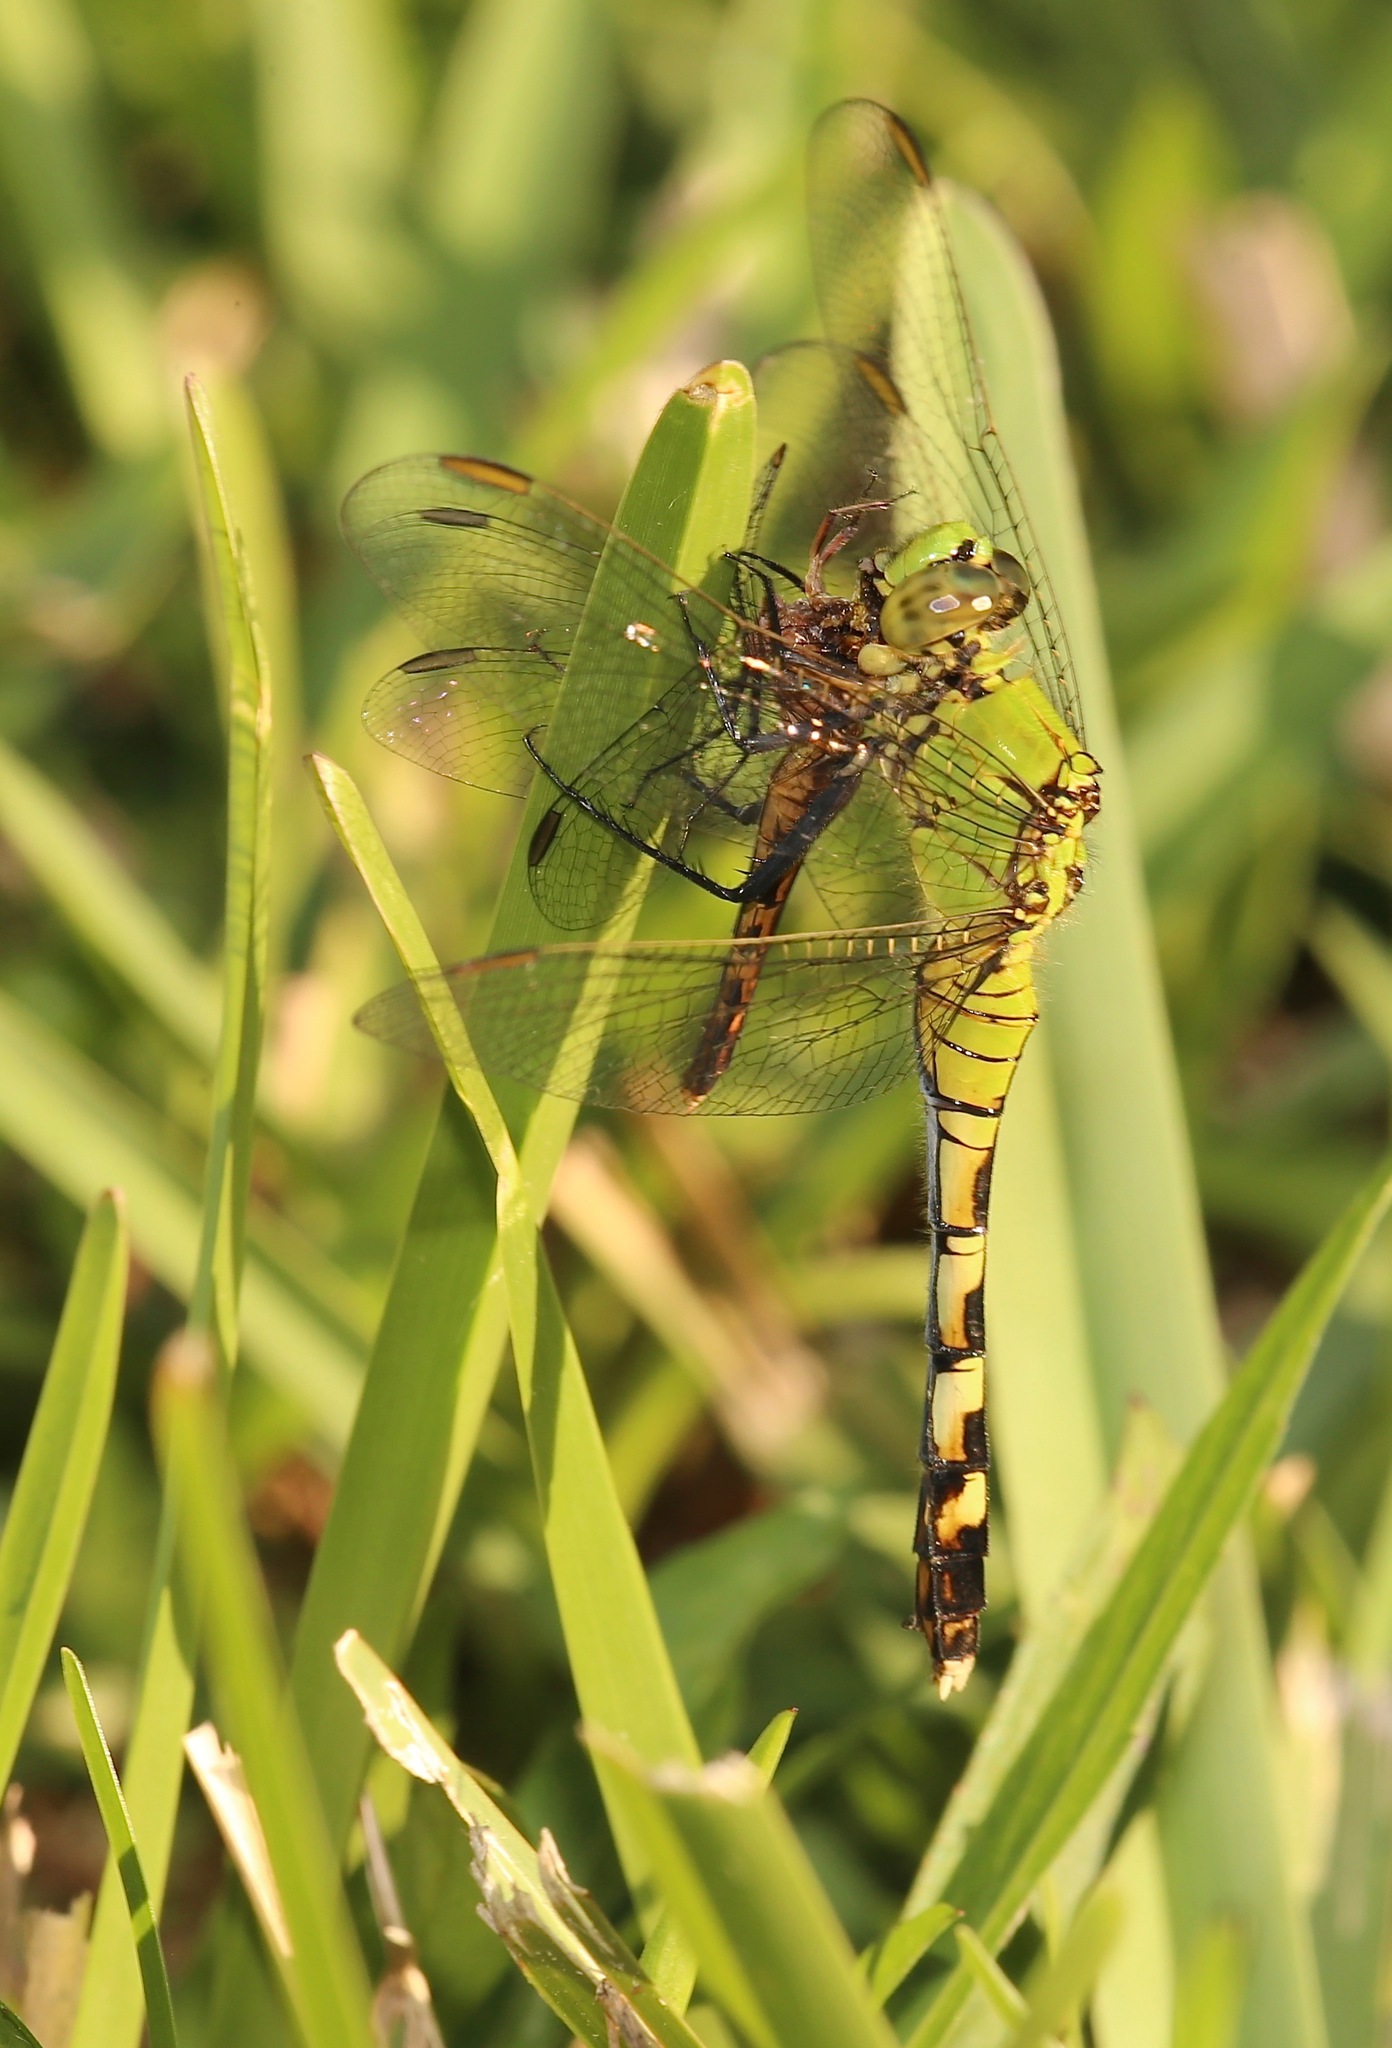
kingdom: Animalia
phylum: Arthropoda
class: Insecta
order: Odonata
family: Libellulidae
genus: Erythemis
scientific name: Erythemis simplicicollis
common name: Eastern pondhawk
